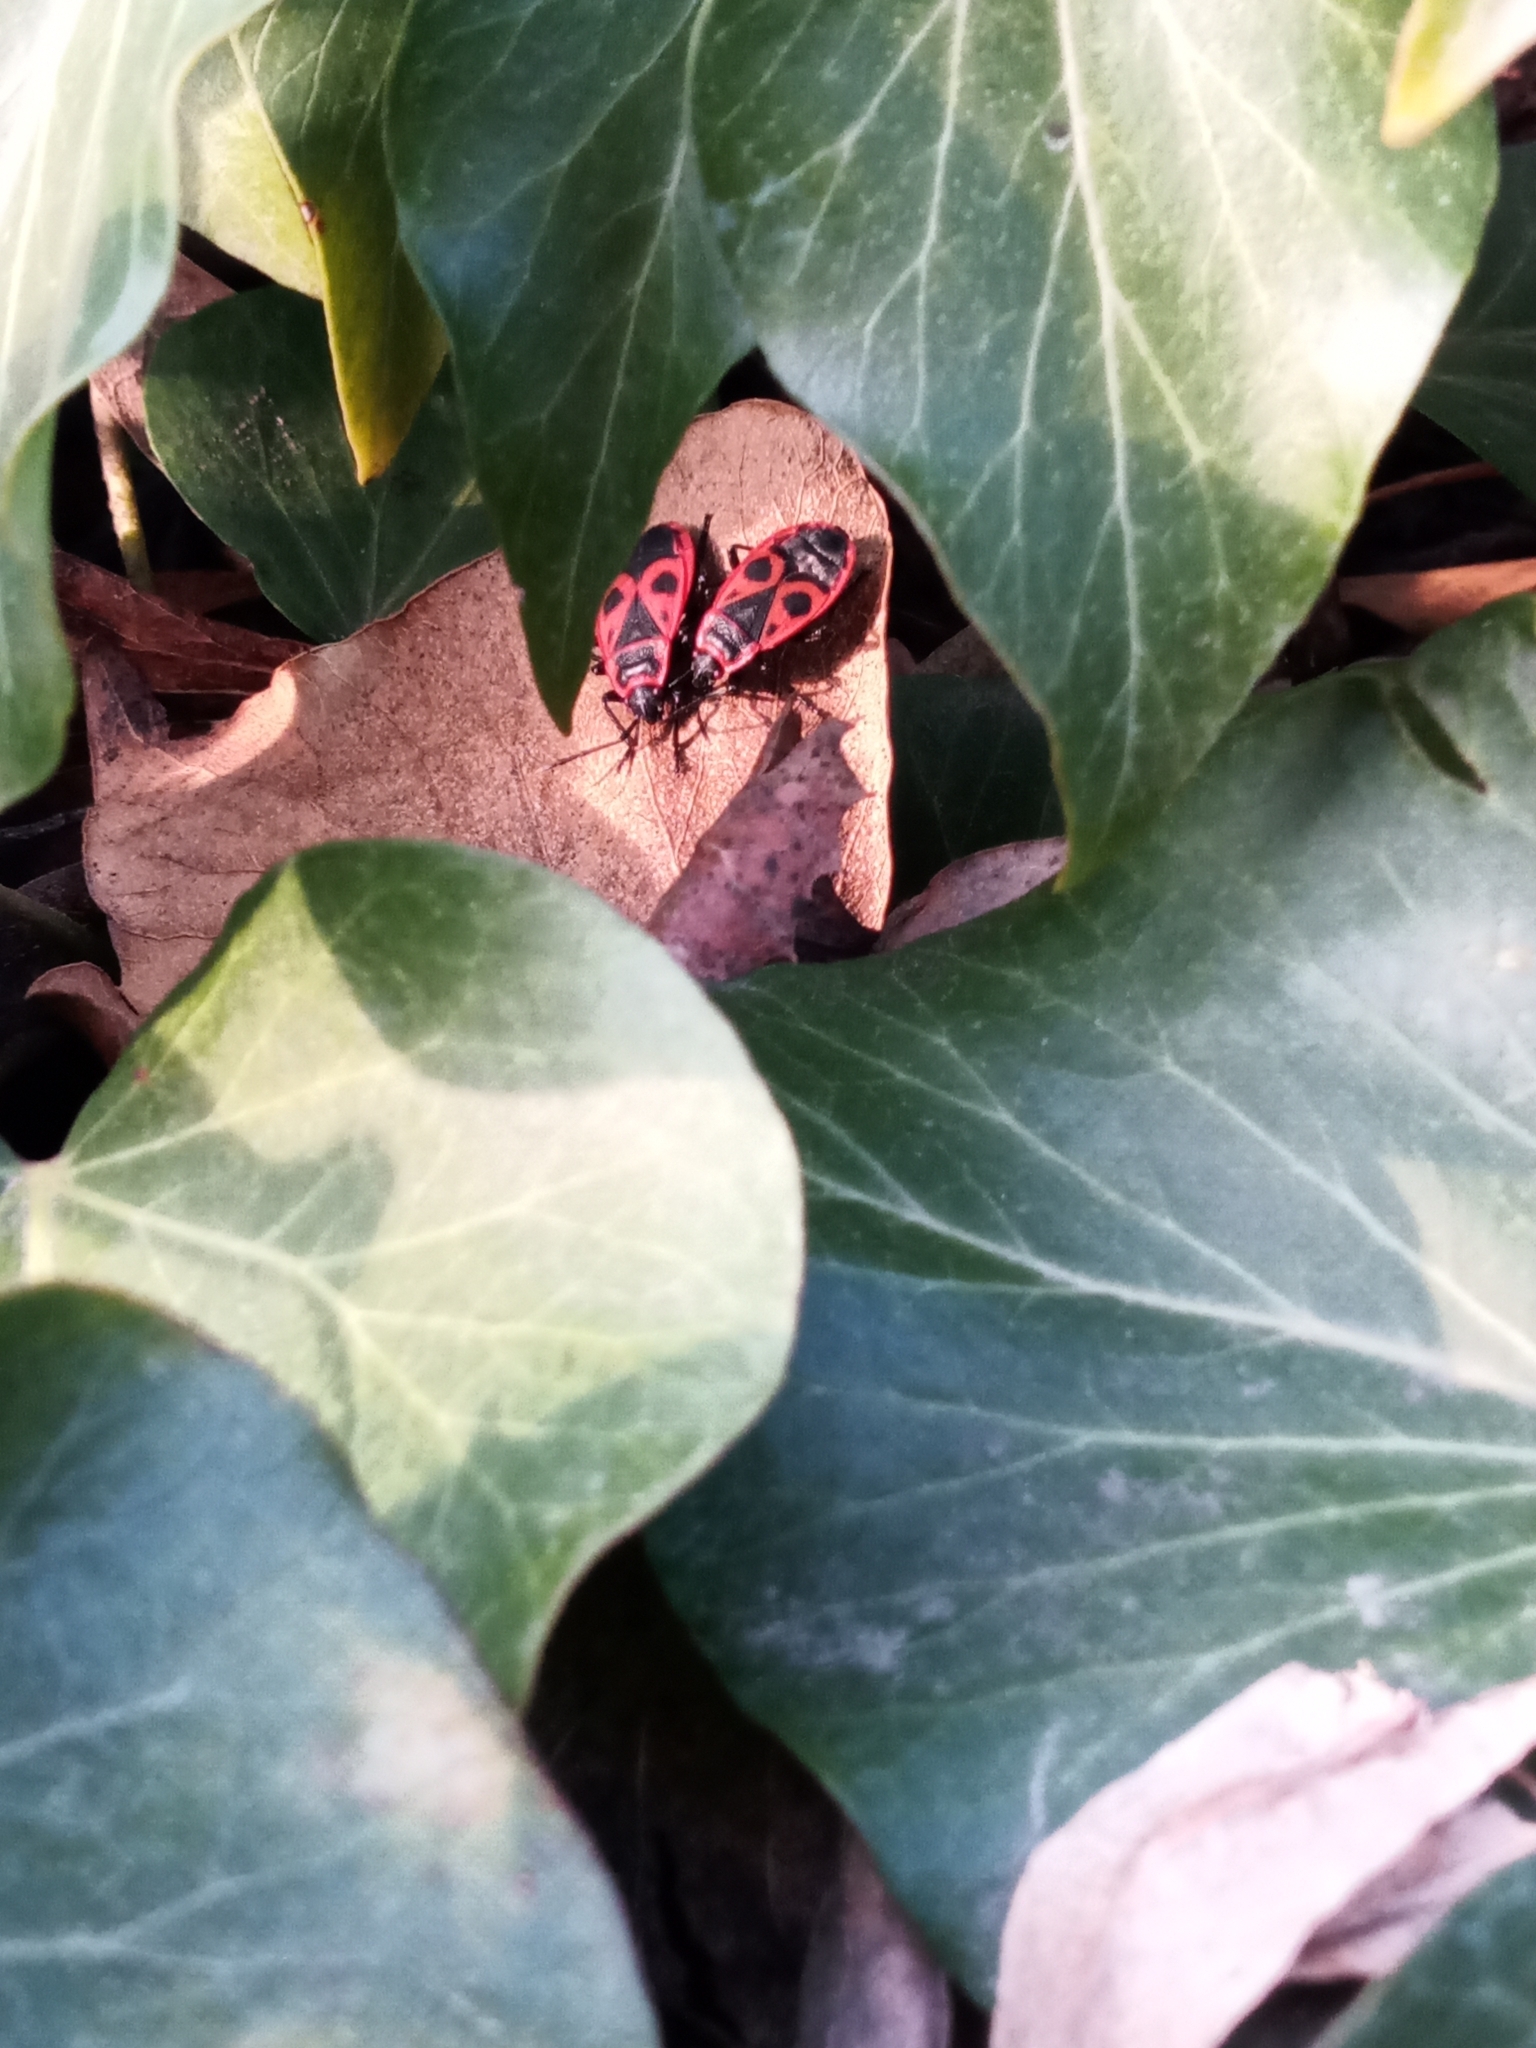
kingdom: Animalia
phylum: Arthropoda
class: Insecta
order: Hemiptera
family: Pyrrhocoridae
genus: Pyrrhocoris
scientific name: Pyrrhocoris apterus
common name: Firebug
